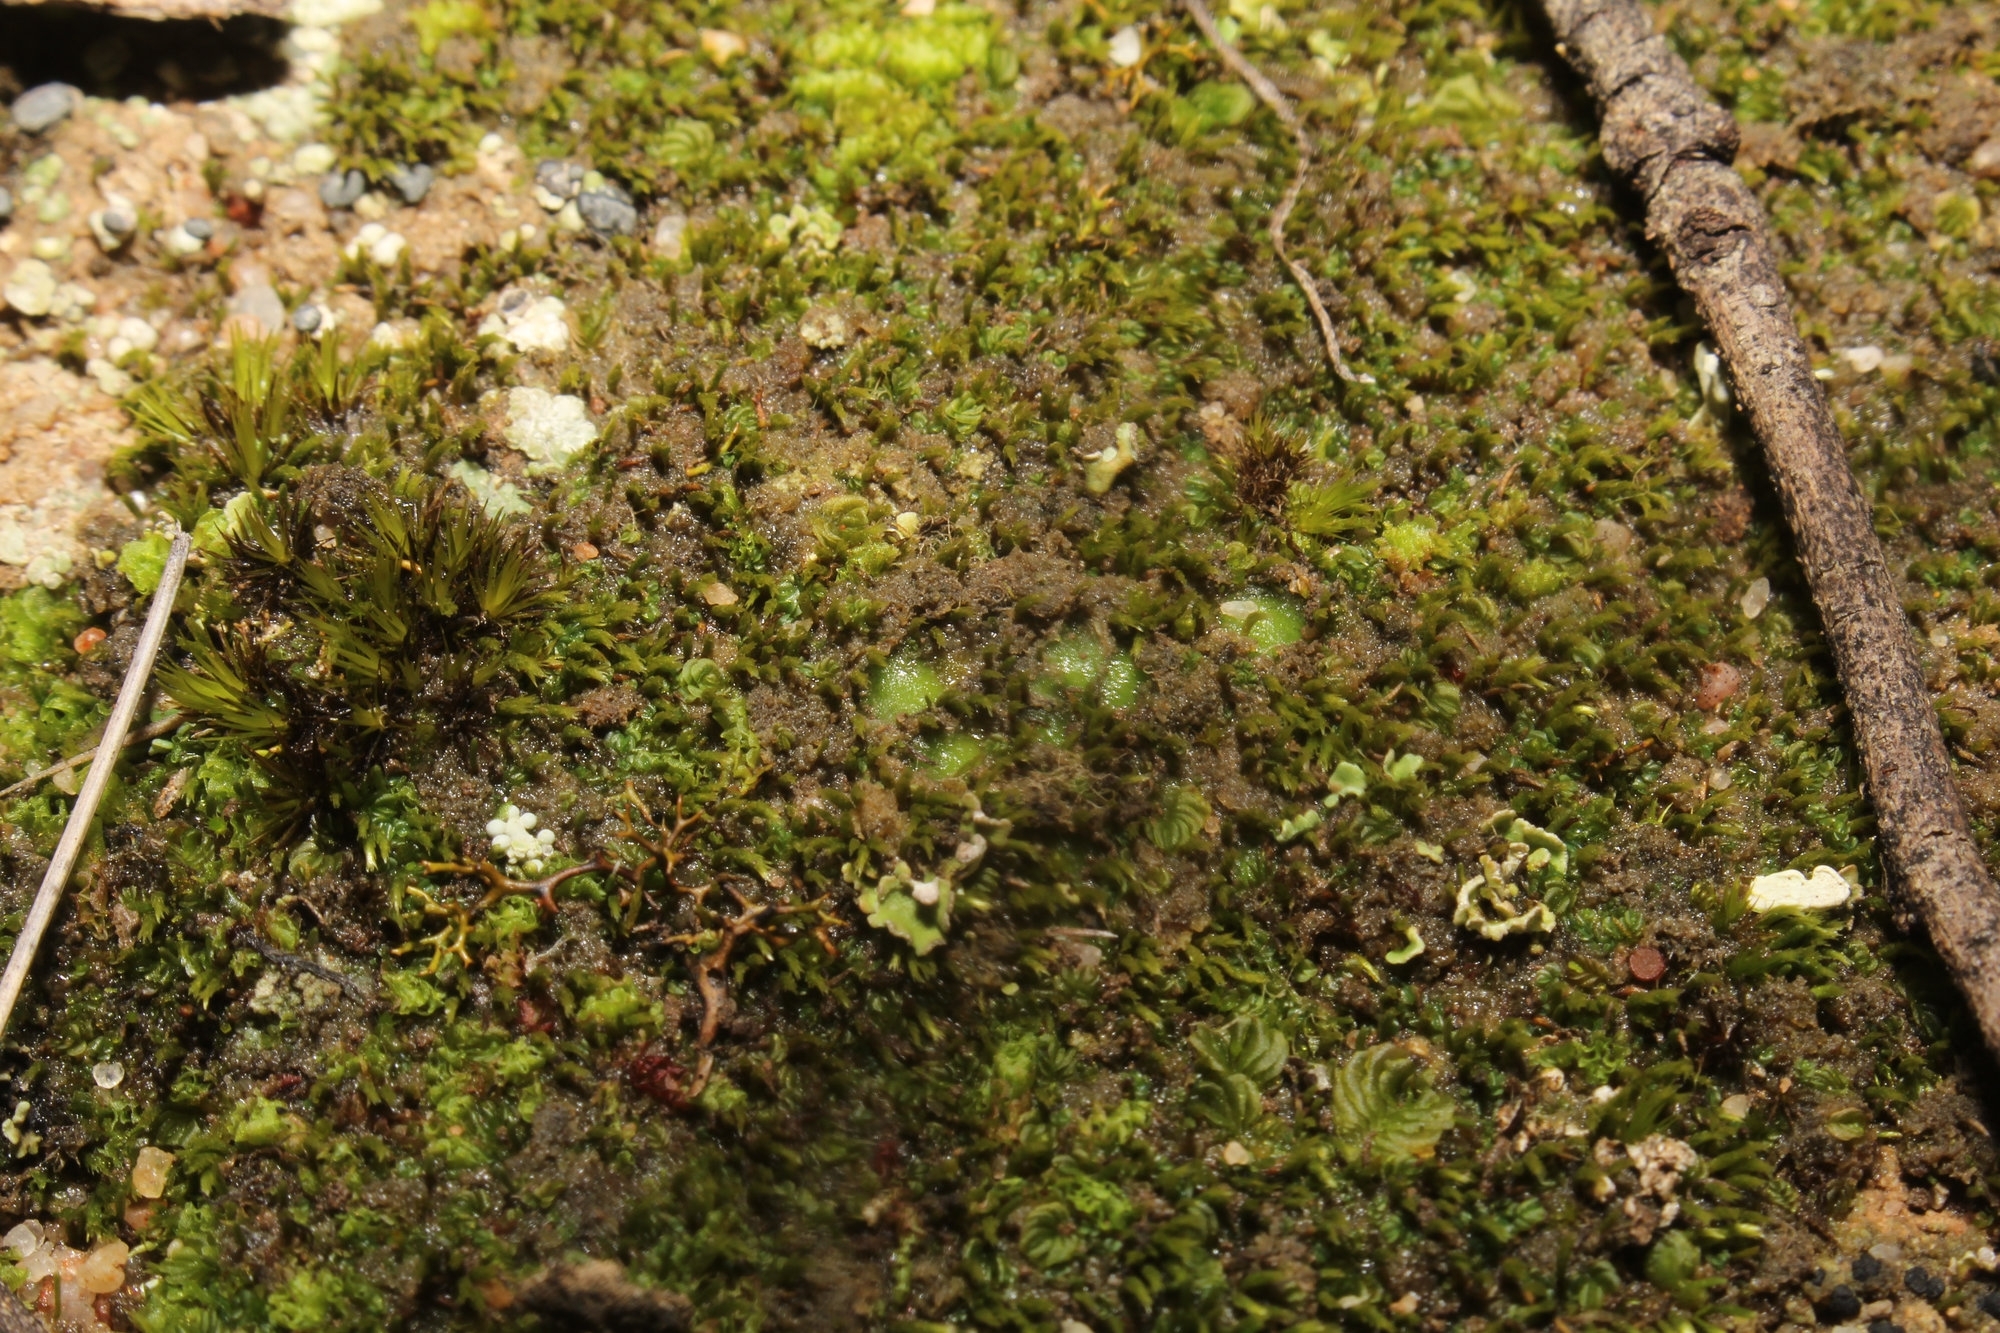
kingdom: Plantae
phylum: Marchantiophyta
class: Jungermanniopsida
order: Jungermanniales
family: Acrobolbaceae
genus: Enigmella
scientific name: Enigmella thallina
